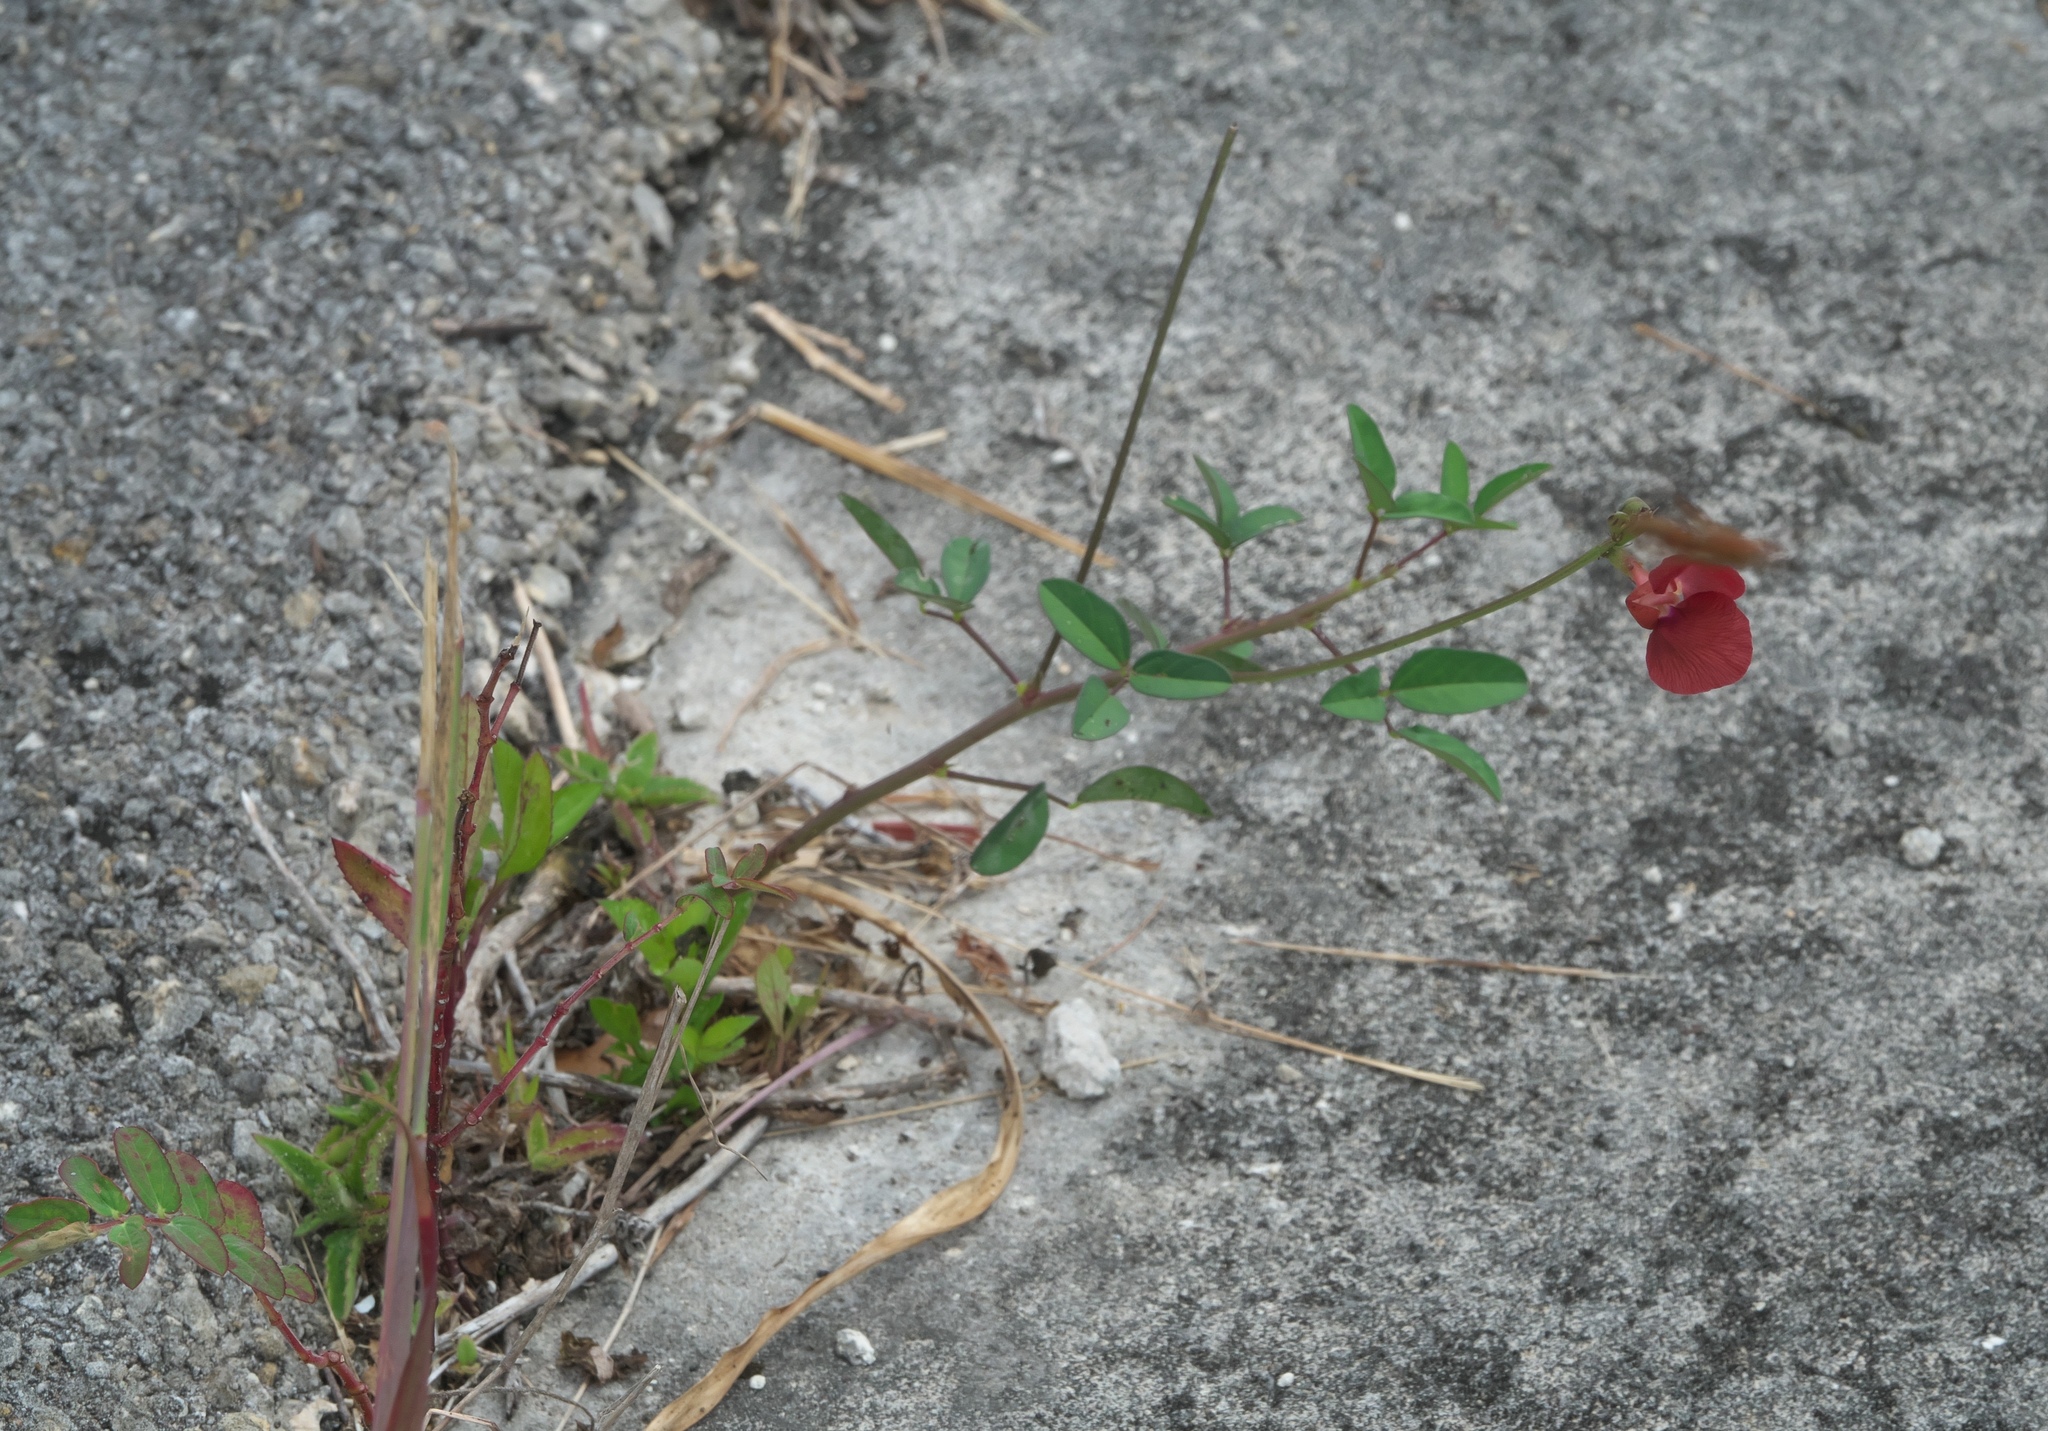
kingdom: Plantae
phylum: Tracheophyta
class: Magnoliopsida
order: Fabales
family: Fabaceae
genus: Macroptilium
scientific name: Macroptilium lathyroides
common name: Wild bushbean
